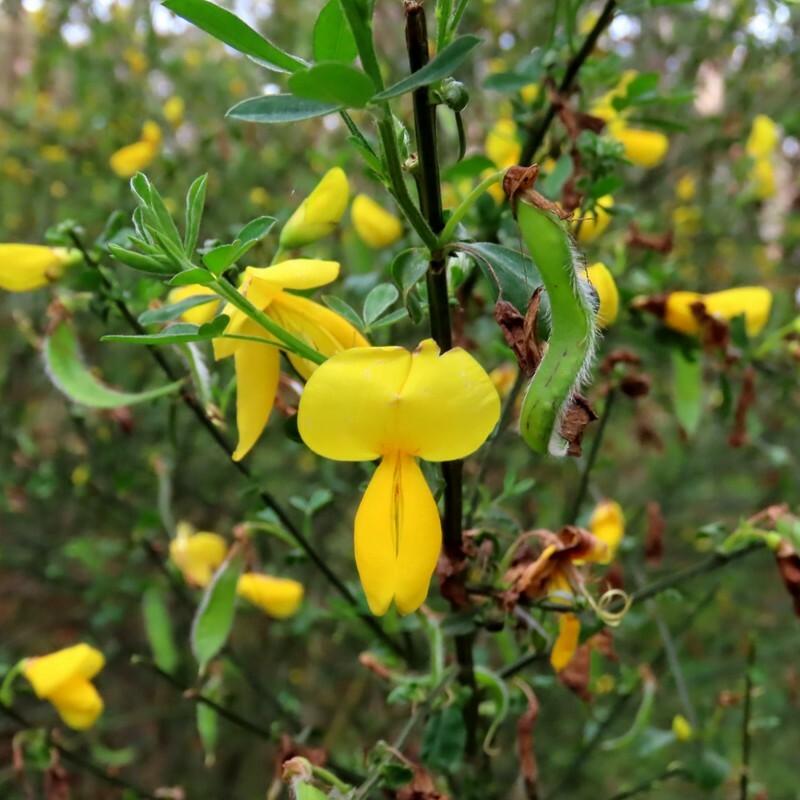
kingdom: Plantae
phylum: Tracheophyta
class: Magnoliopsida
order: Fabales
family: Fabaceae
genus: Cytisus
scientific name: Cytisus scoparius
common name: Scotch broom
